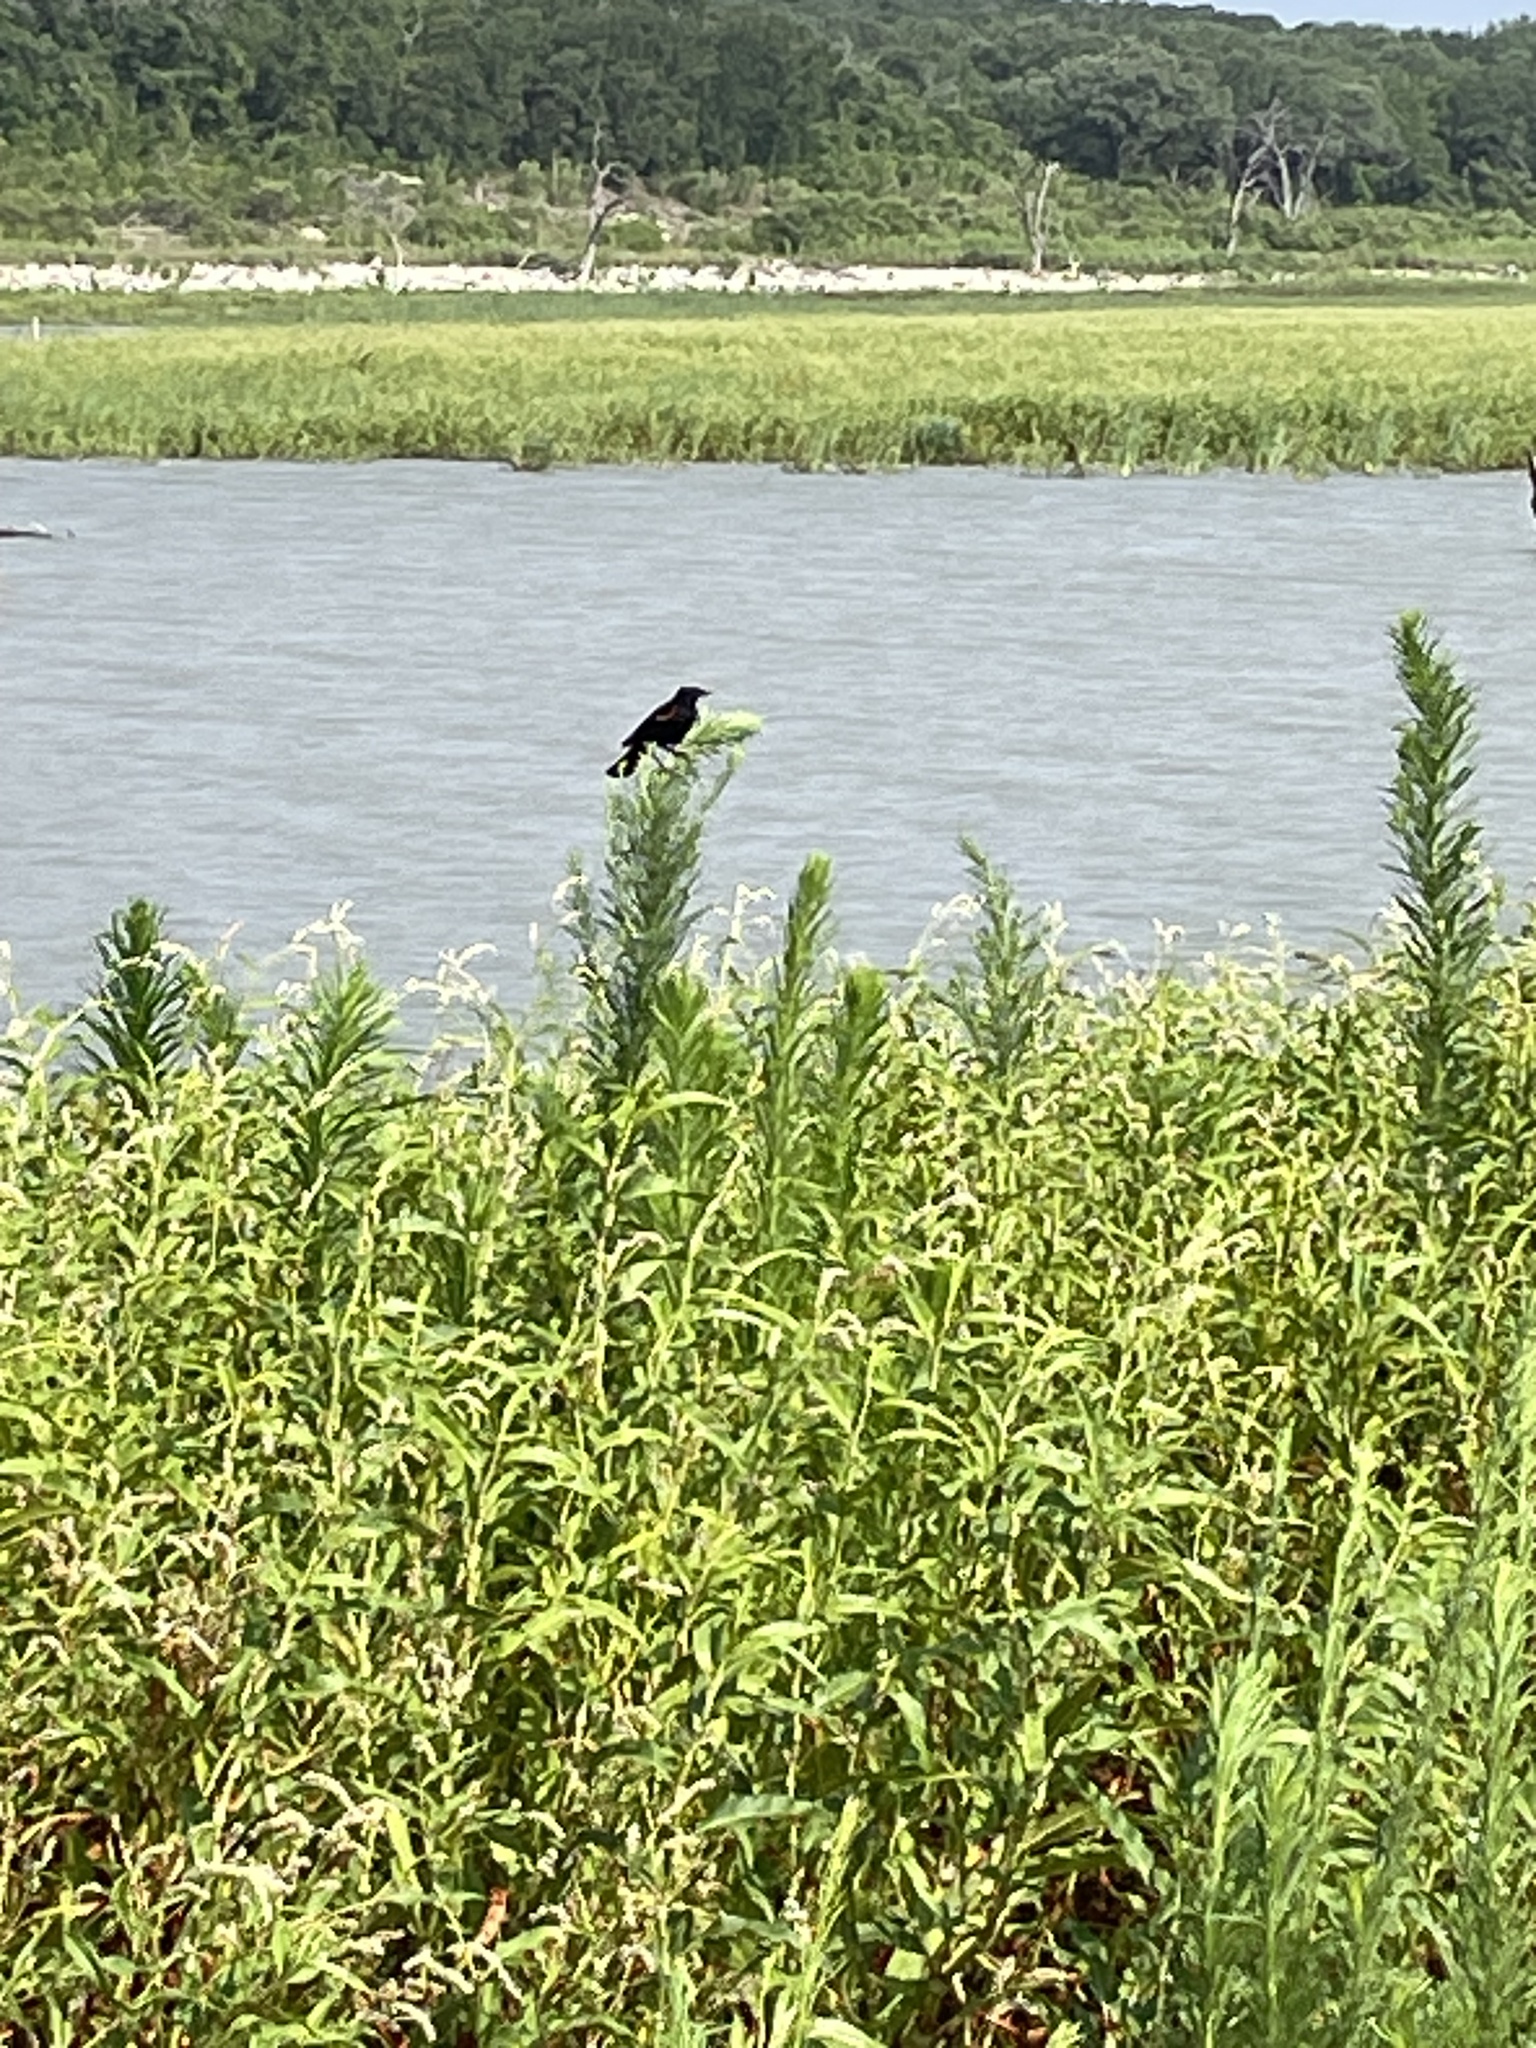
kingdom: Animalia
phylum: Chordata
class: Aves
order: Passeriformes
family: Icteridae
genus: Agelaius
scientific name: Agelaius phoeniceus
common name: Red-winged blackbird
